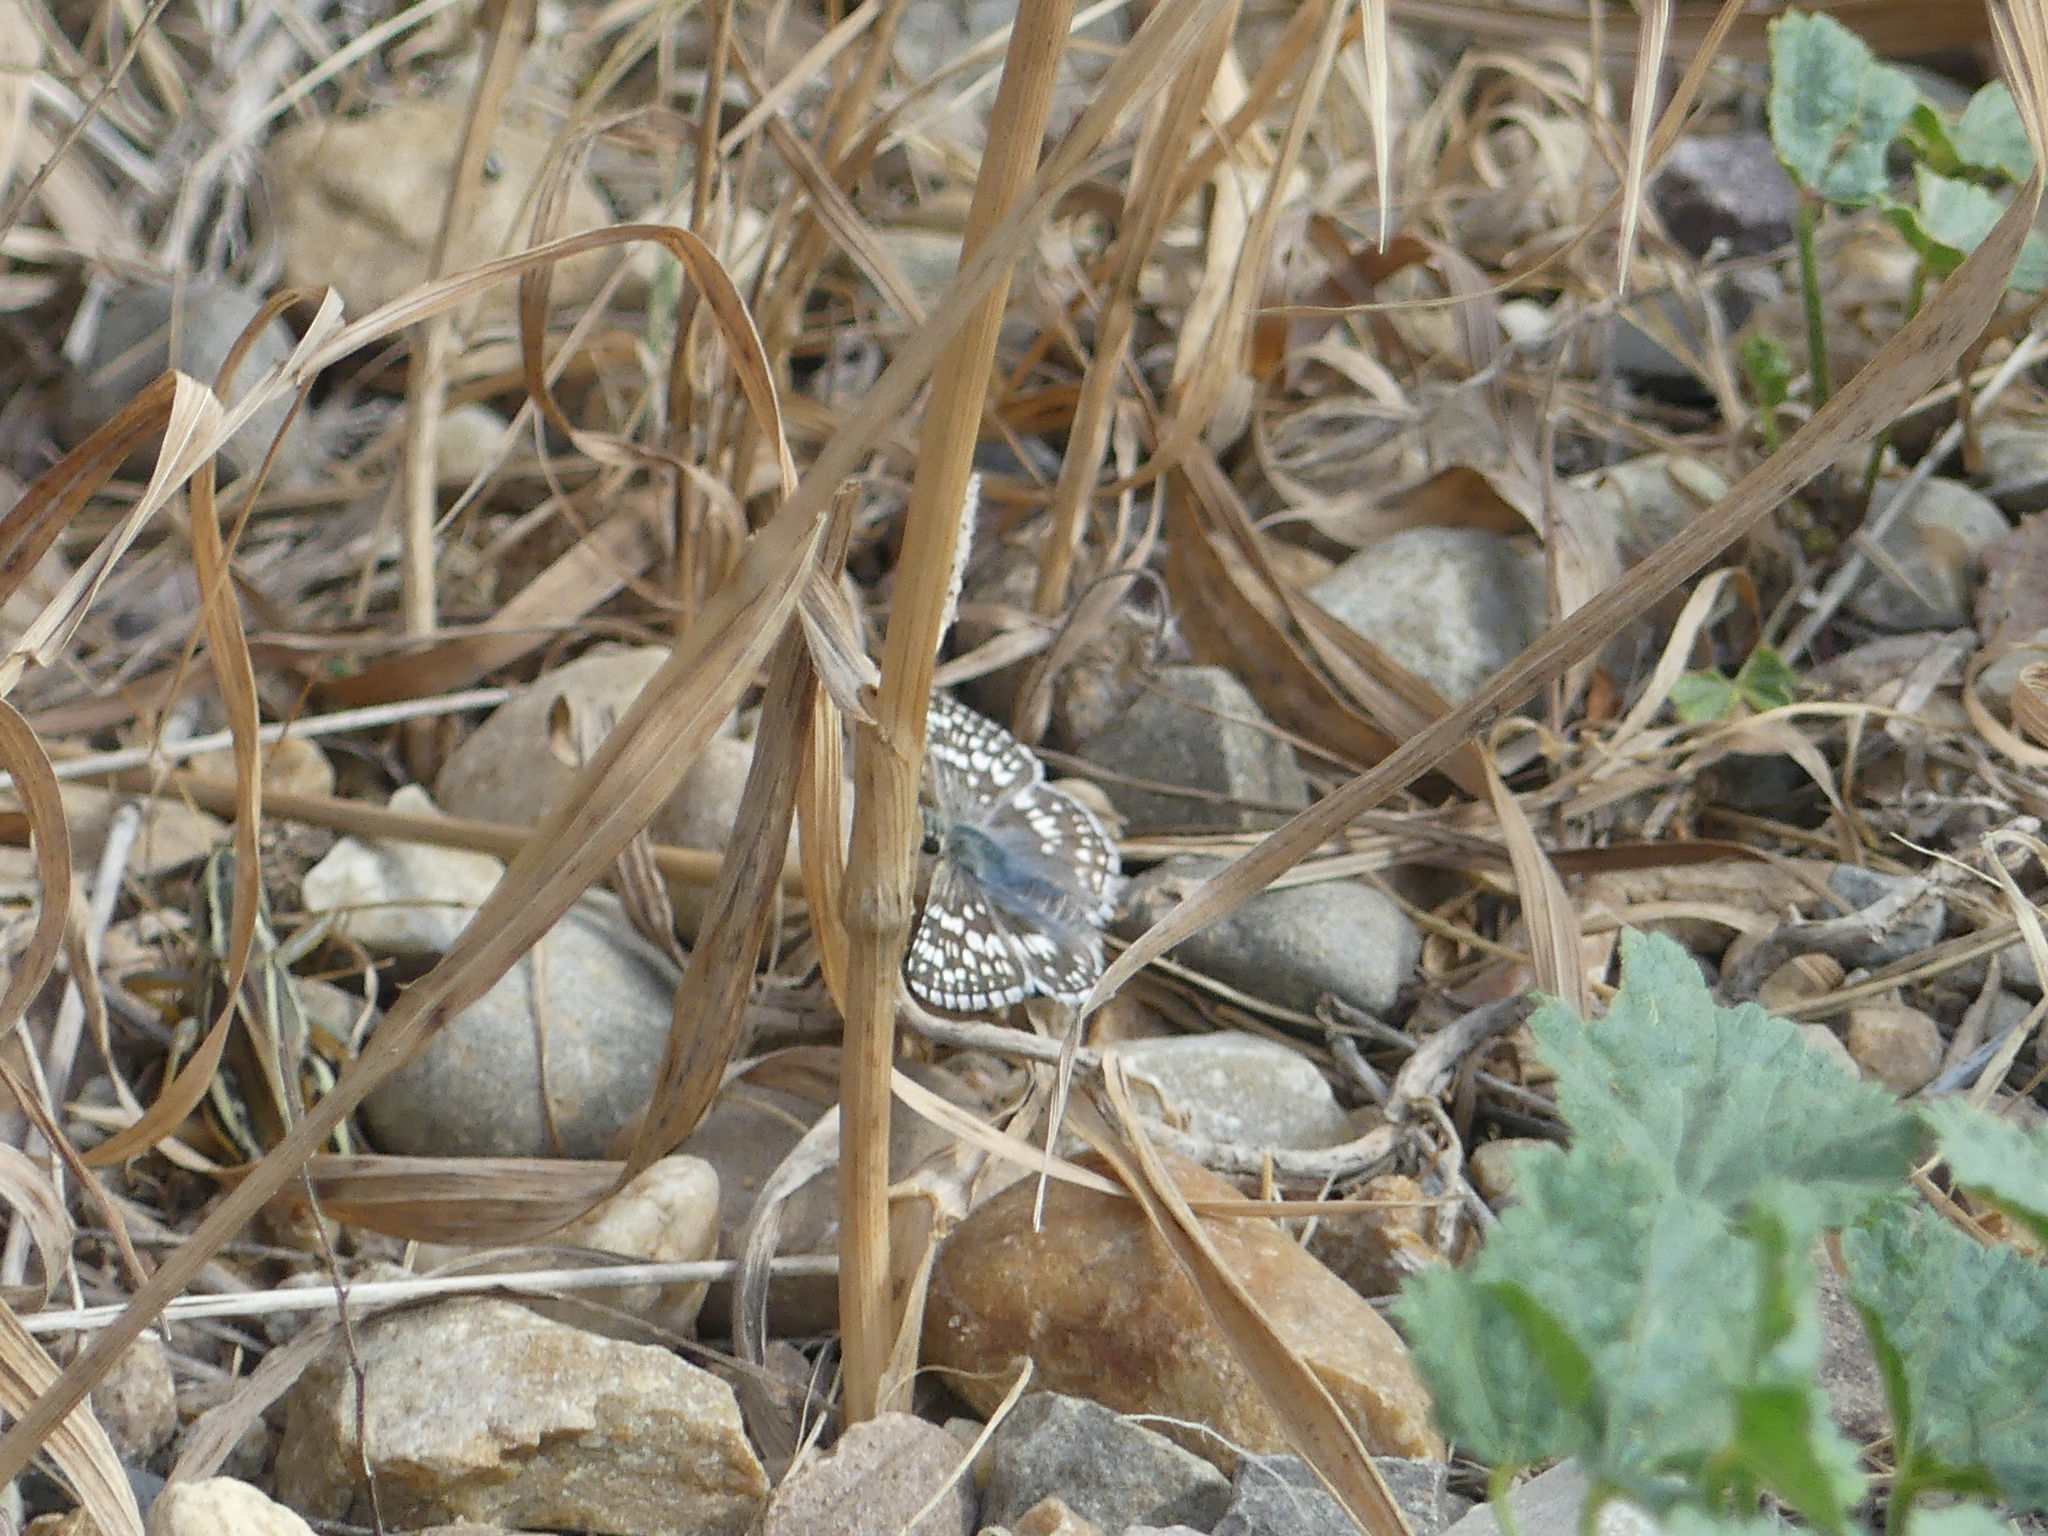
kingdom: Animalia
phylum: Arthropoda
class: Insecta
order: Lepidoptera
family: Hesperiidae
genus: Burnsius
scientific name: Burnsius communis
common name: Common checkered-skipper
